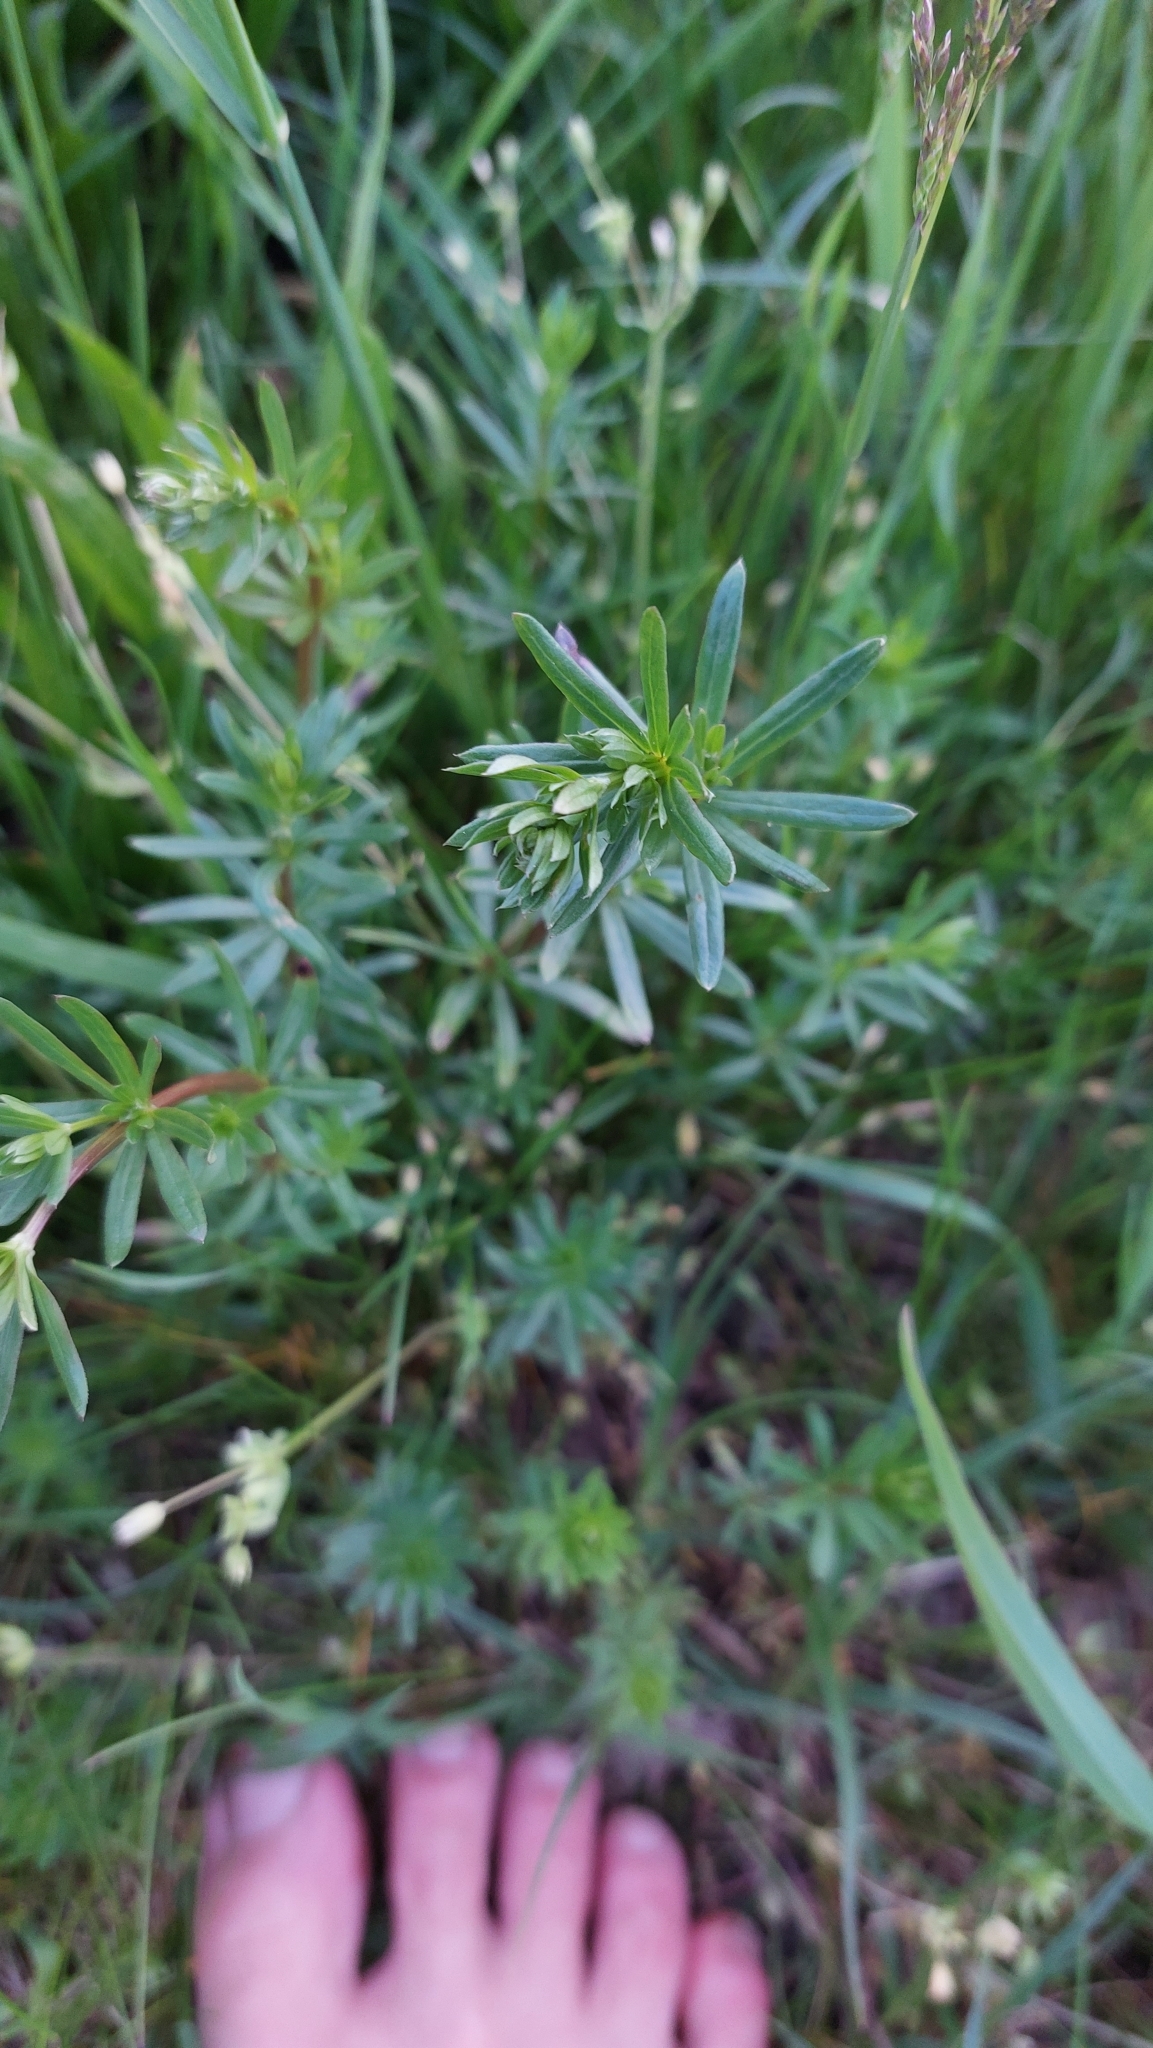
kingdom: Plantae
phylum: Tracheophyta
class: Magnoliopsida
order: Gentianales
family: Rubiaceae
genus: Galium
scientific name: Galium album
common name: White bedstraw
